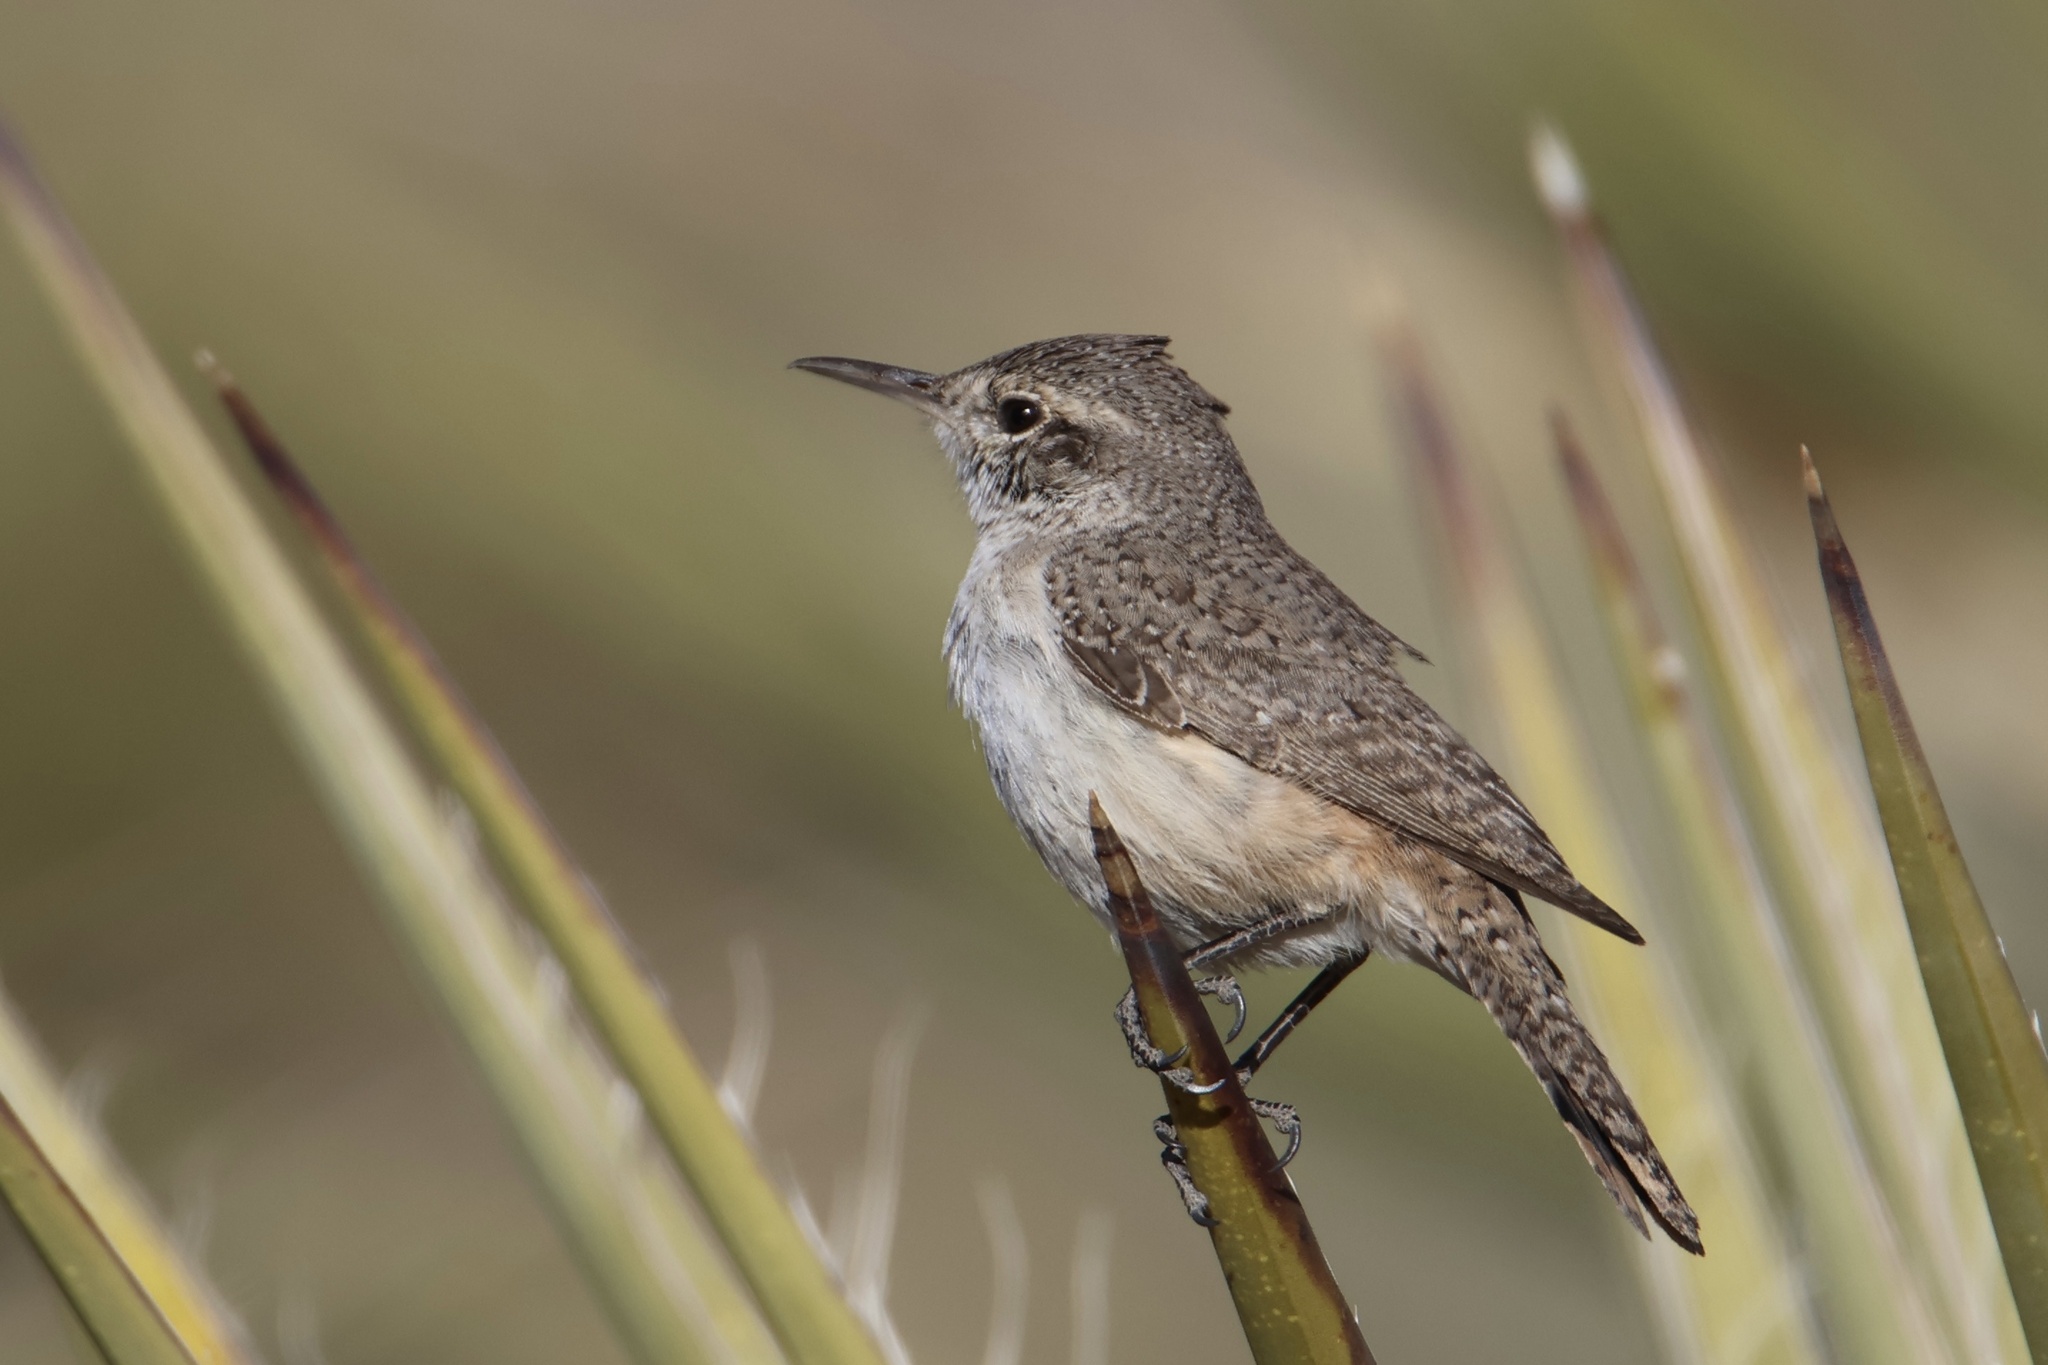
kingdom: Animalia
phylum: Chordata
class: Aves
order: Passeriformes
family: Troglodytidae
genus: Salpinctes
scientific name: Salpinctes obsoletus
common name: Rock wren
